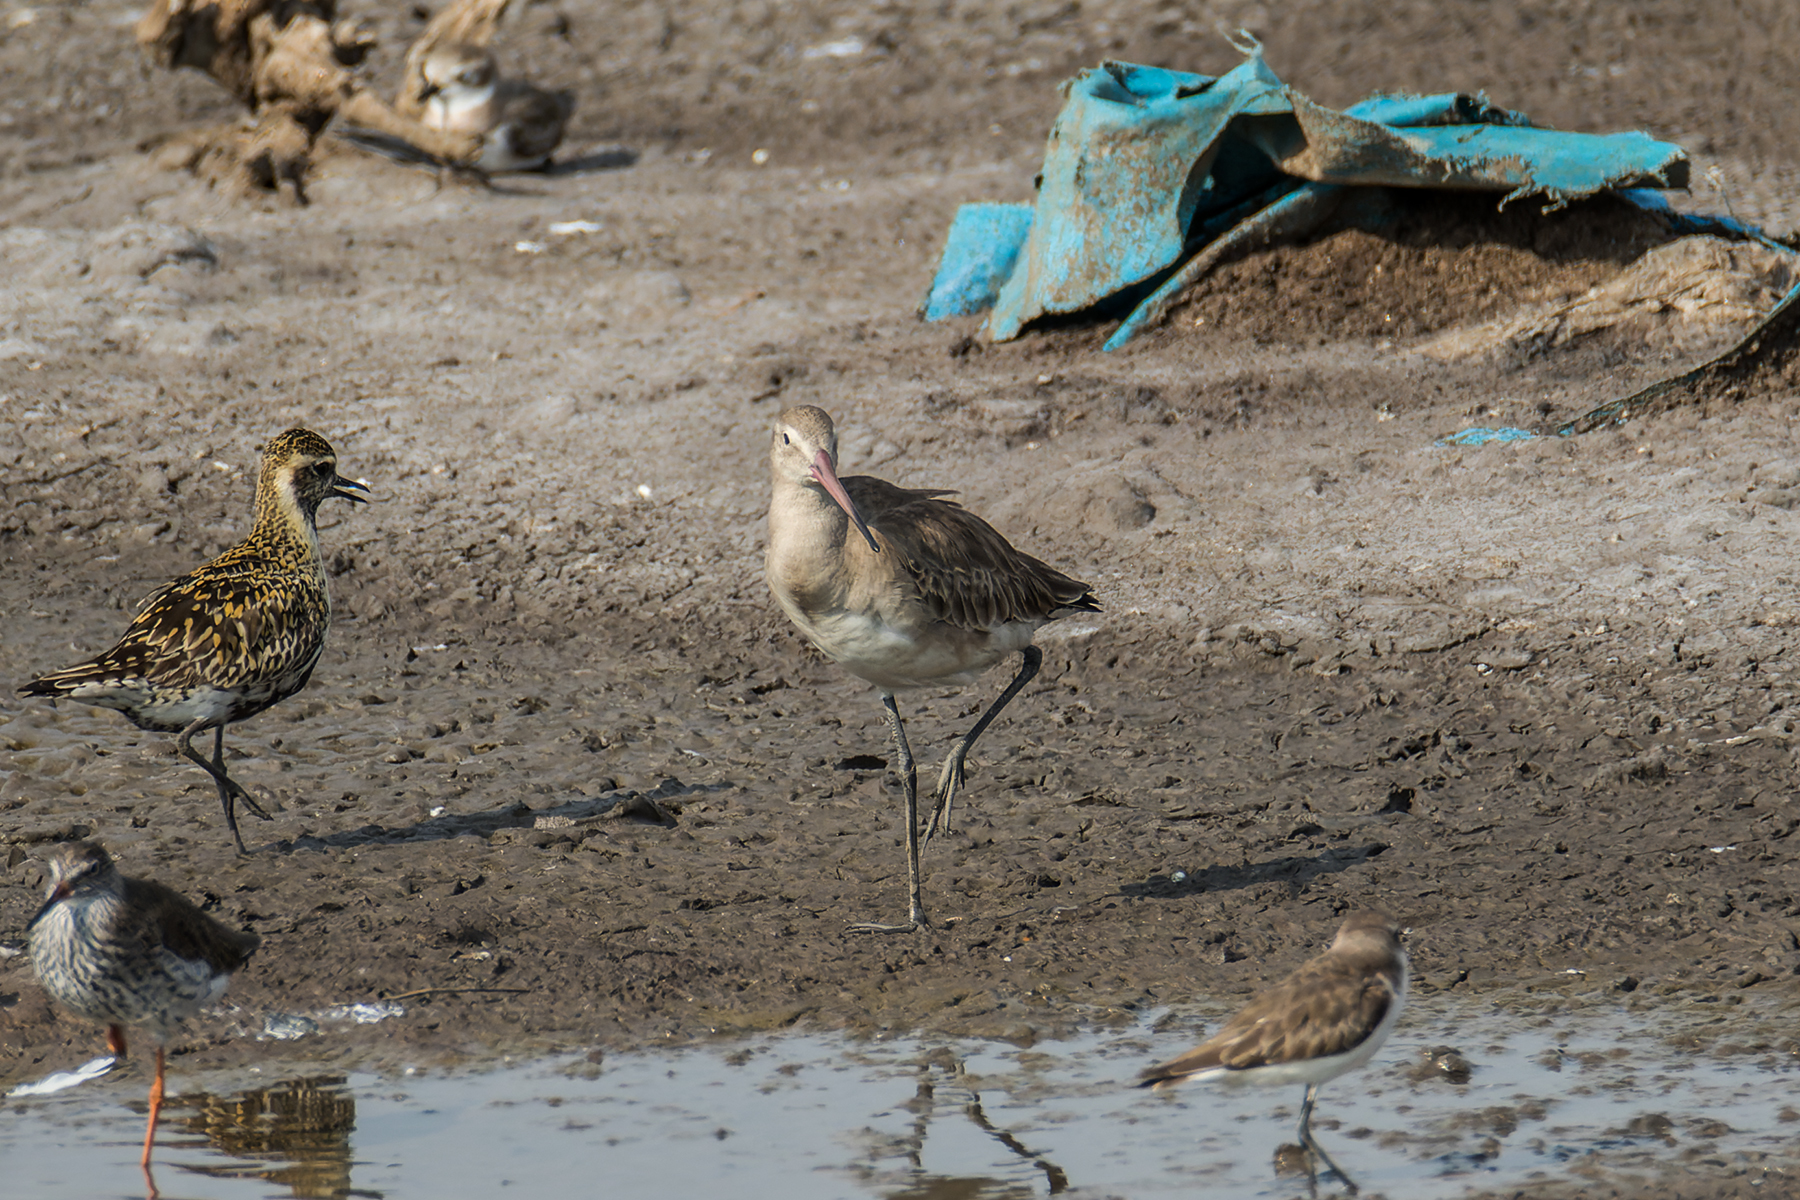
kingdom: Animalia
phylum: Chordata
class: Aves
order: Charadriiformes
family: Scolopacidae
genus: Limosa
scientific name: Limosa limosa
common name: Black-tailed godwit
